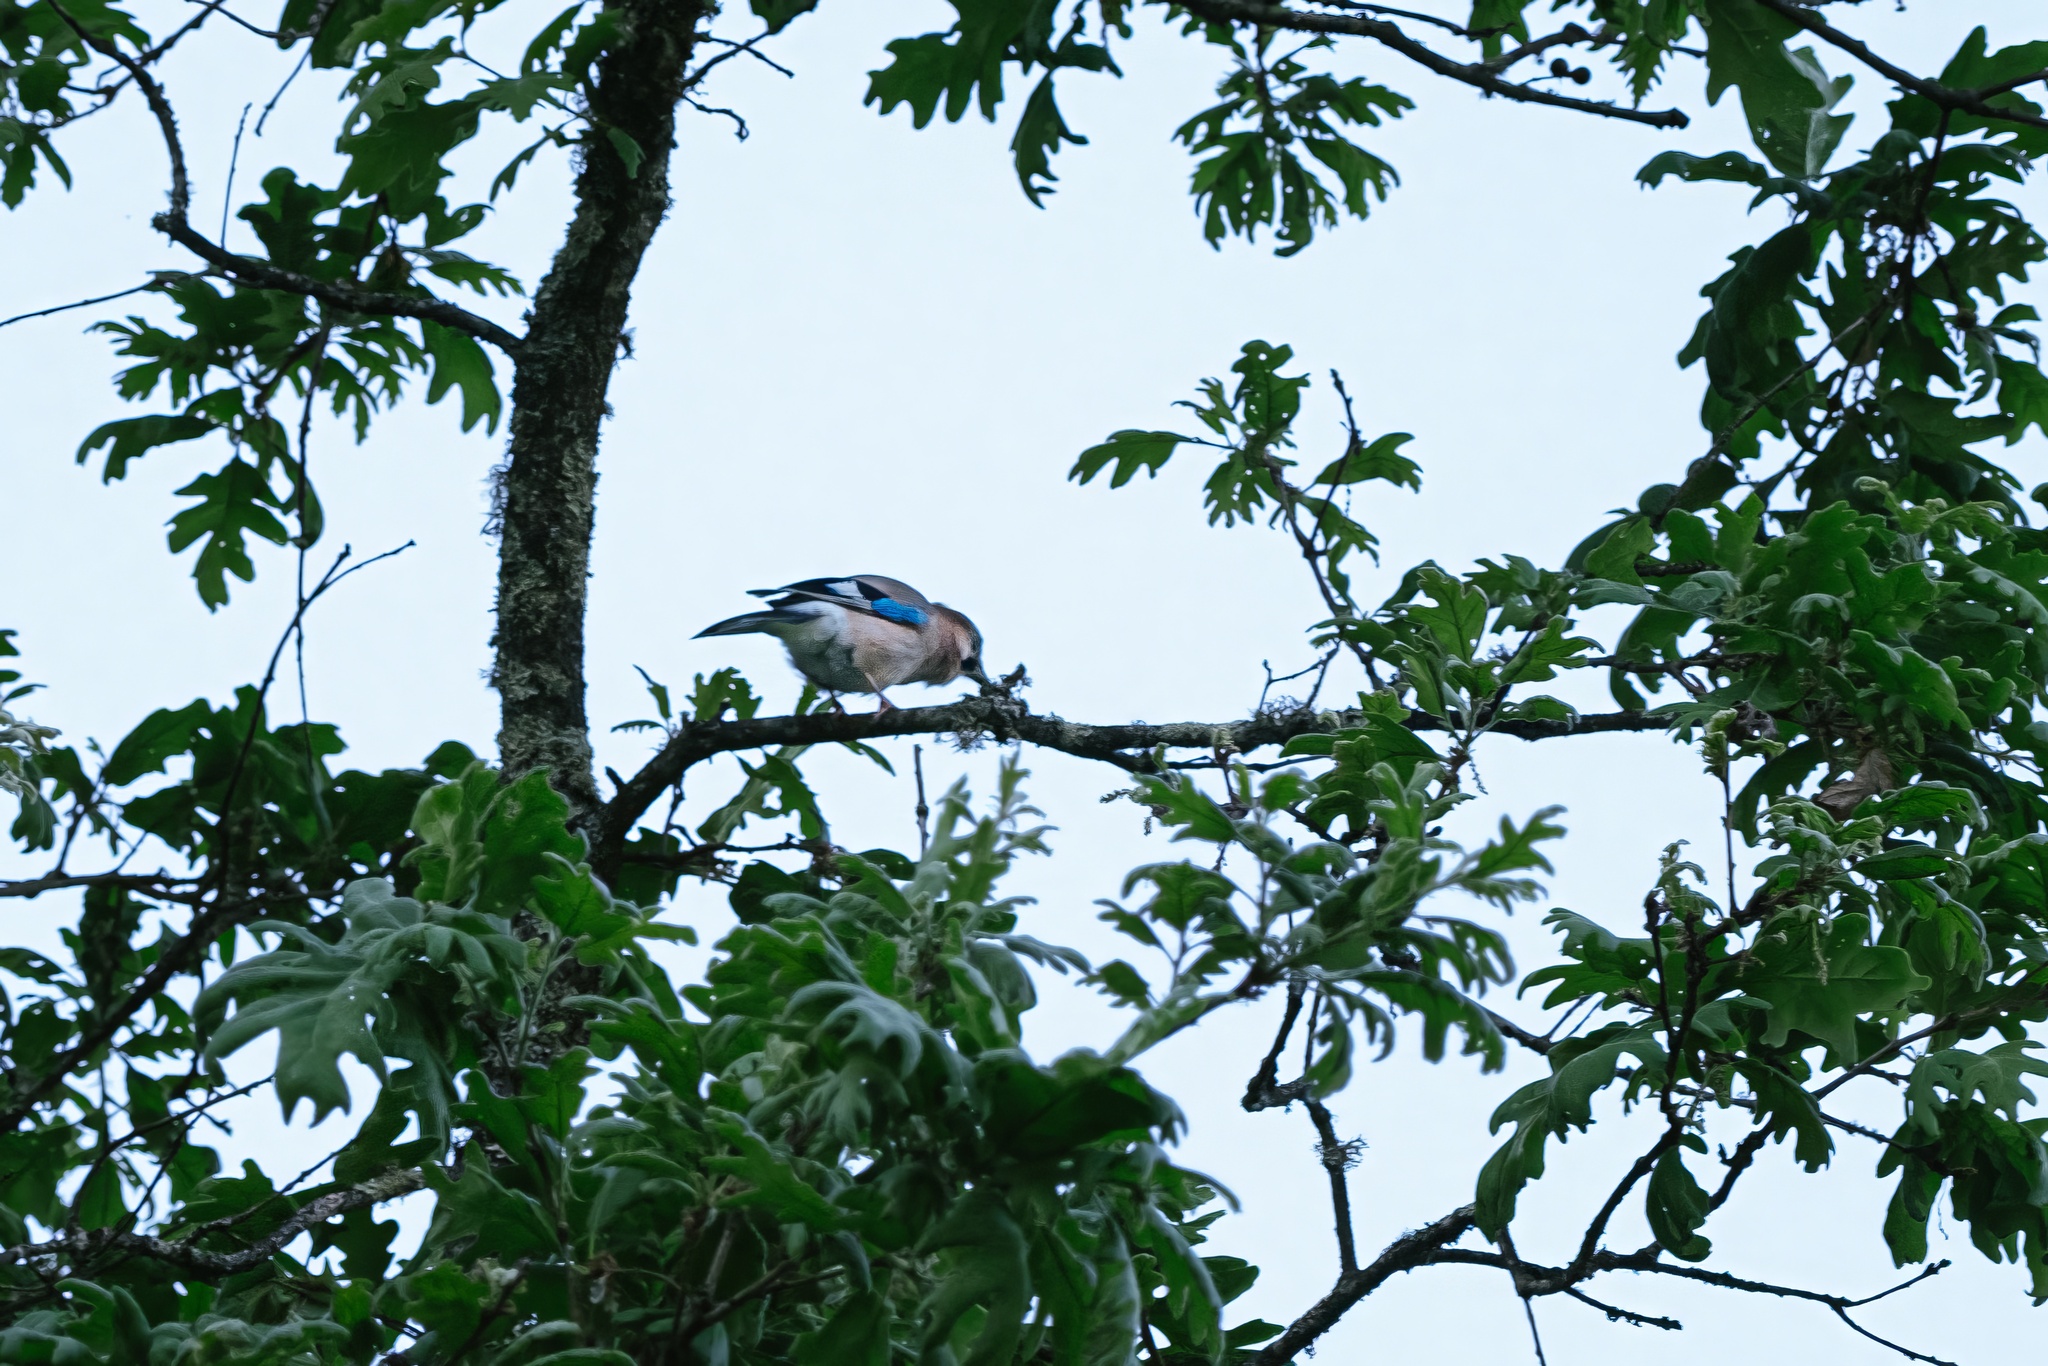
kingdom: Animalia
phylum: Chordata
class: Aves
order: Passeriformes
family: Corvidae
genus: Garrulus
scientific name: Garrulus glandarius
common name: Eurasian jay
